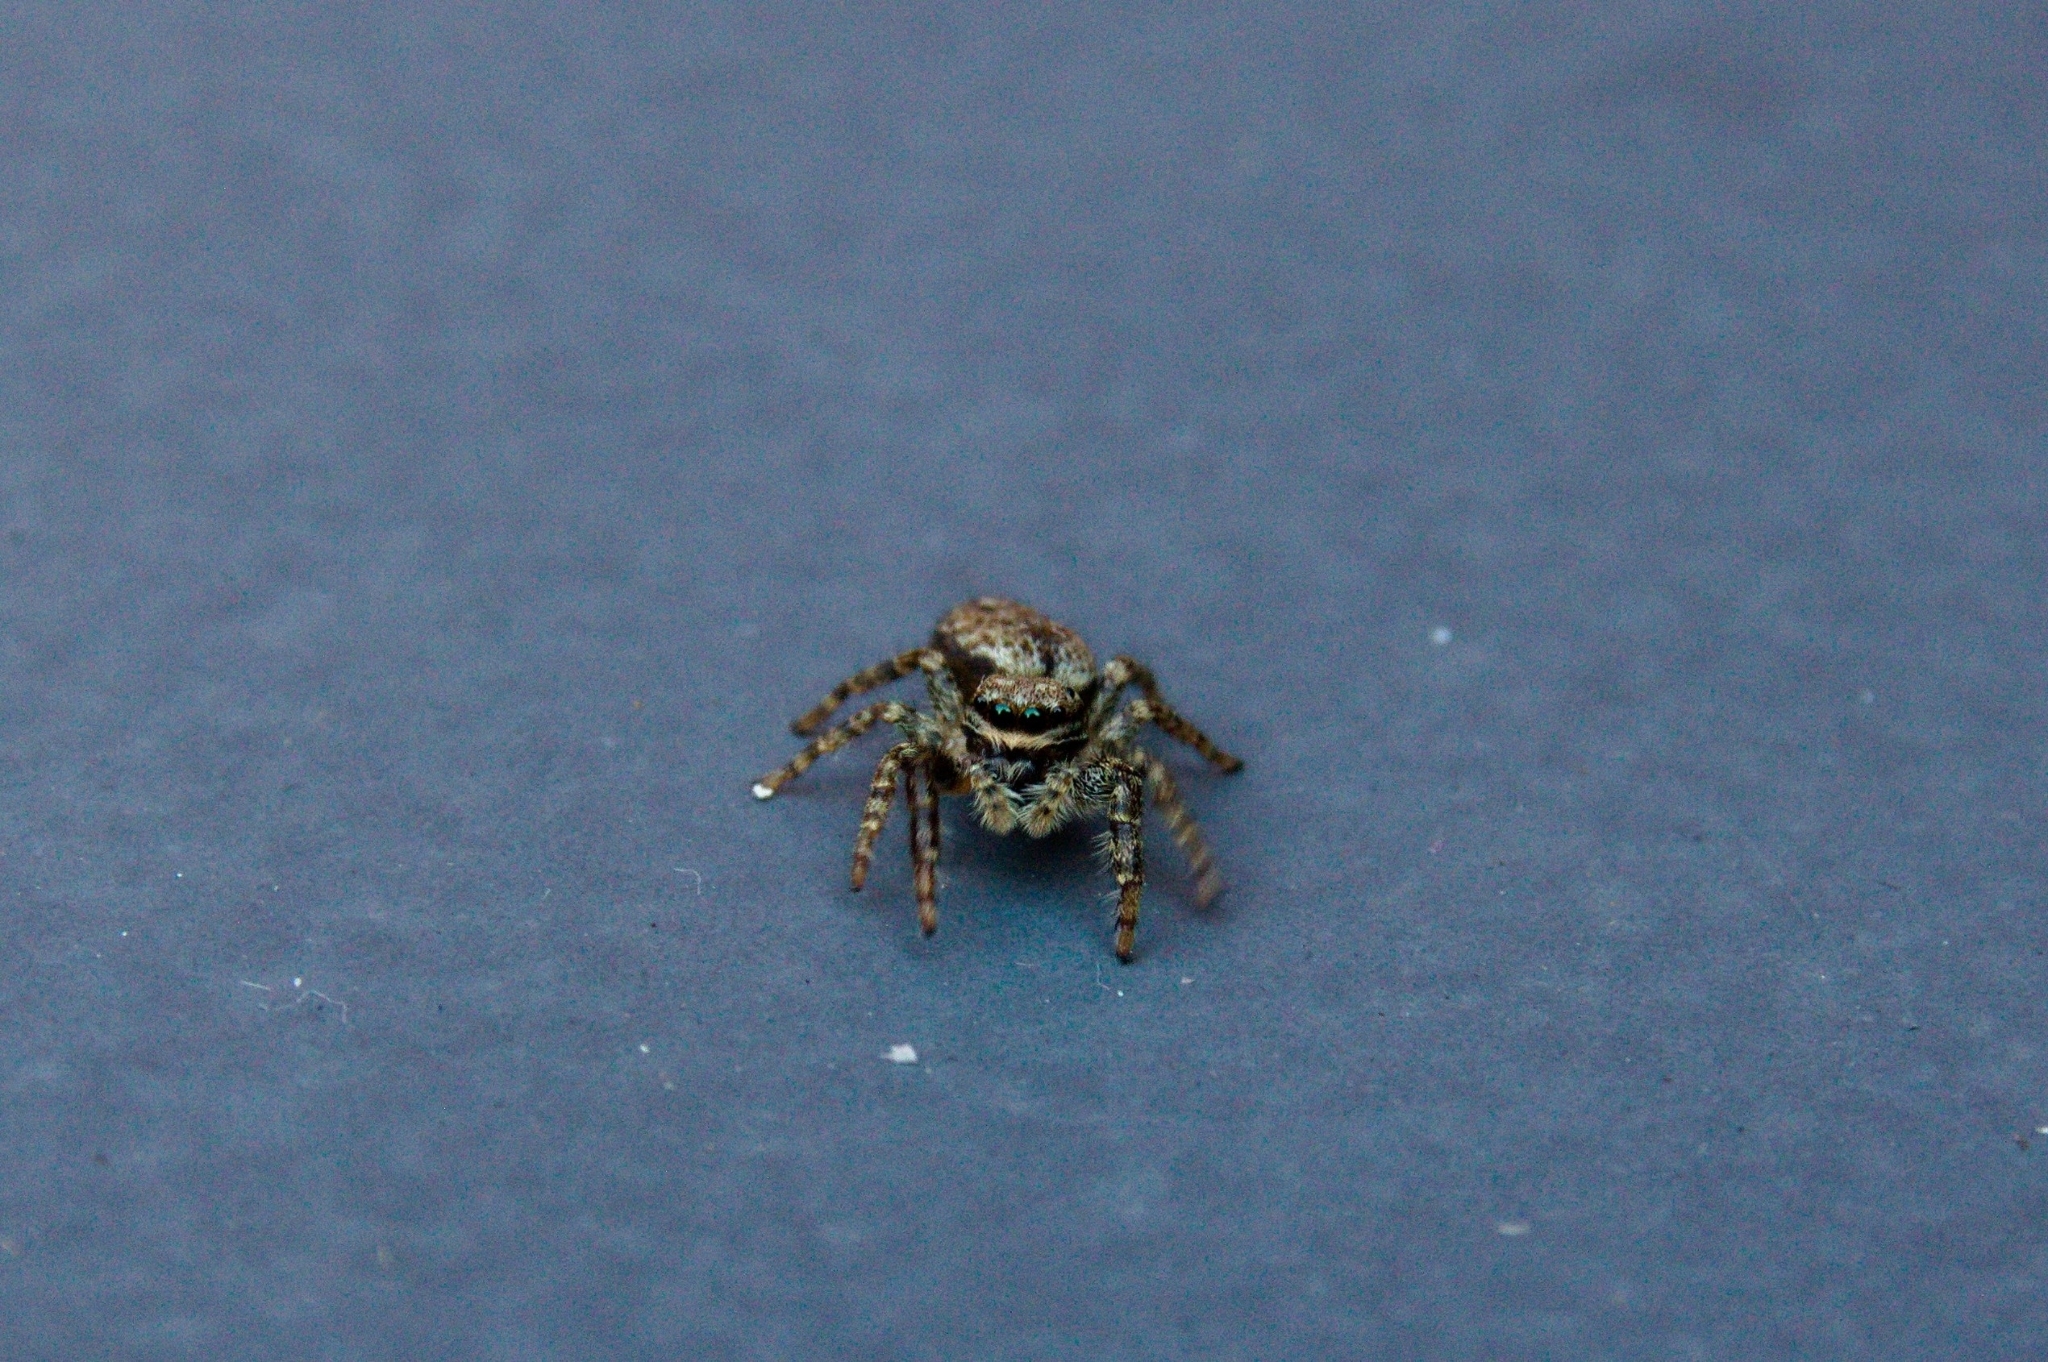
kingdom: Animalia
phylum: Arthropoda
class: Arachnida
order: Araneae
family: Salticidae
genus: Marpissa
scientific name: Marpissa muscosa
